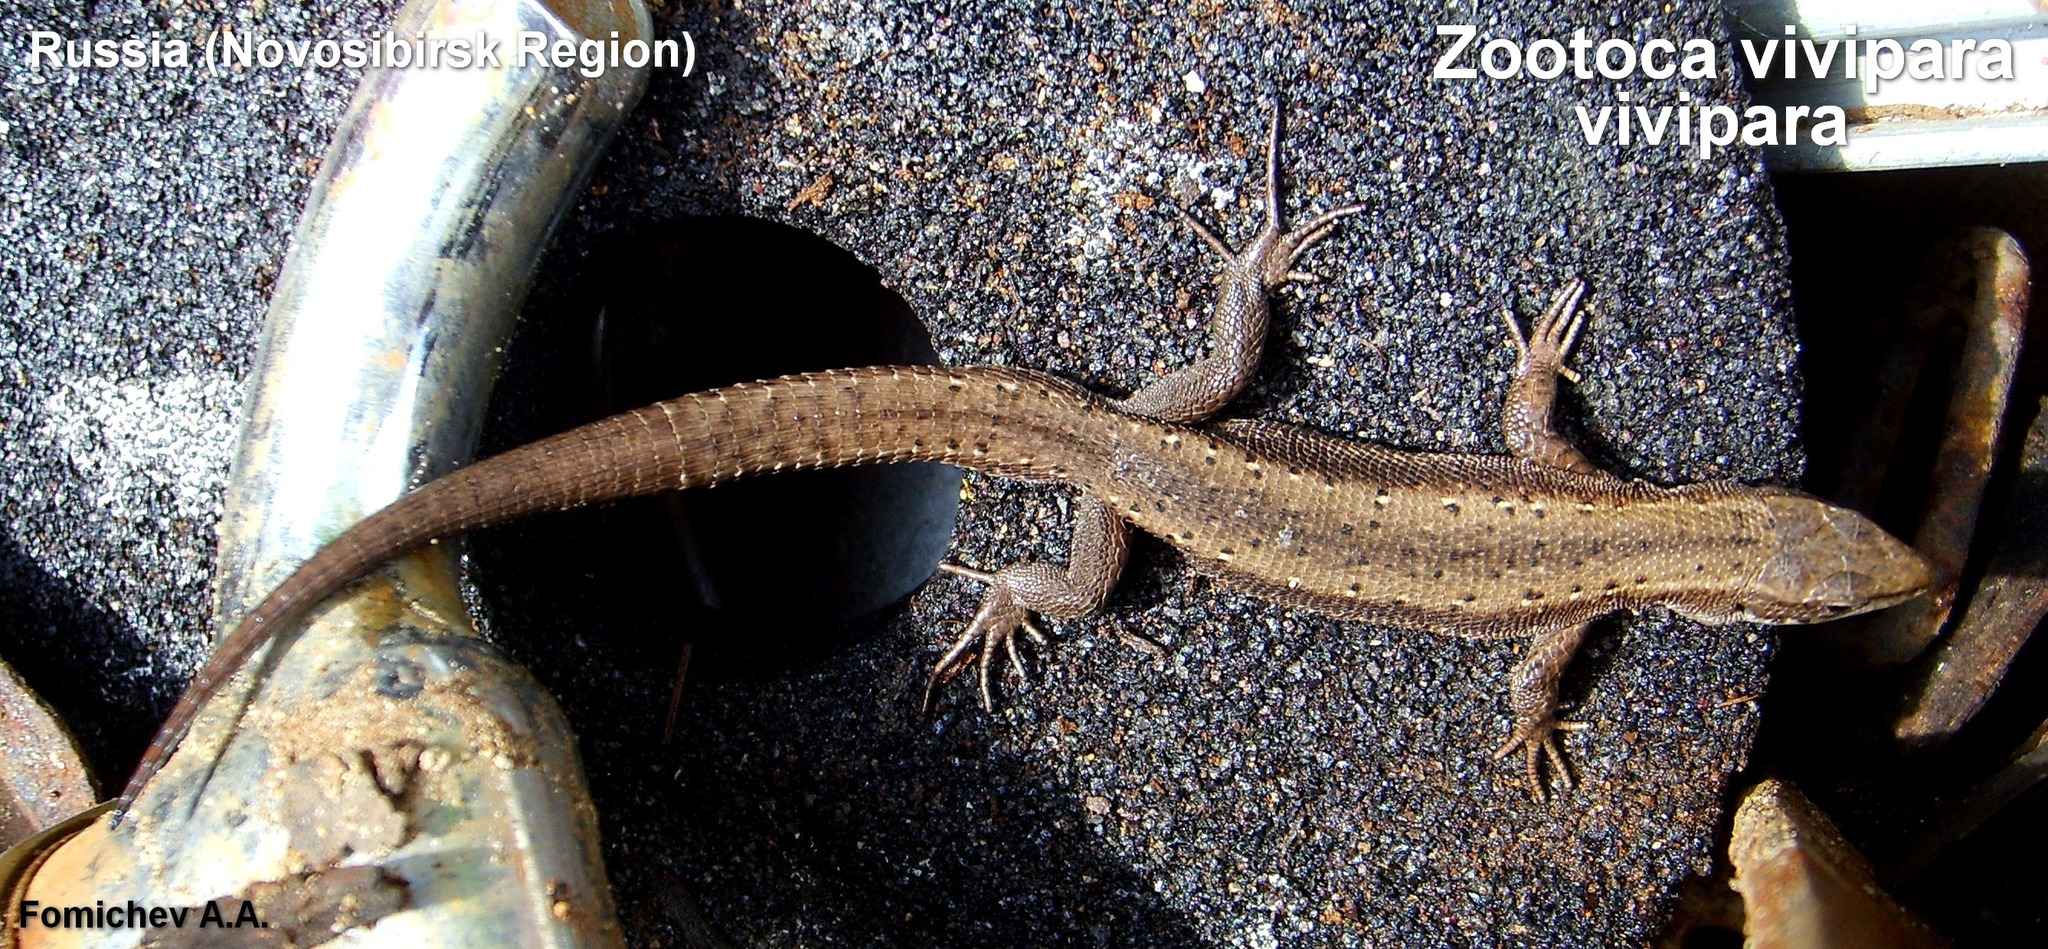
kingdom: Animalia
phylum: Chordata
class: Squamata
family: Lacertidae
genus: Zootoca
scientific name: Zootoca vivipara
